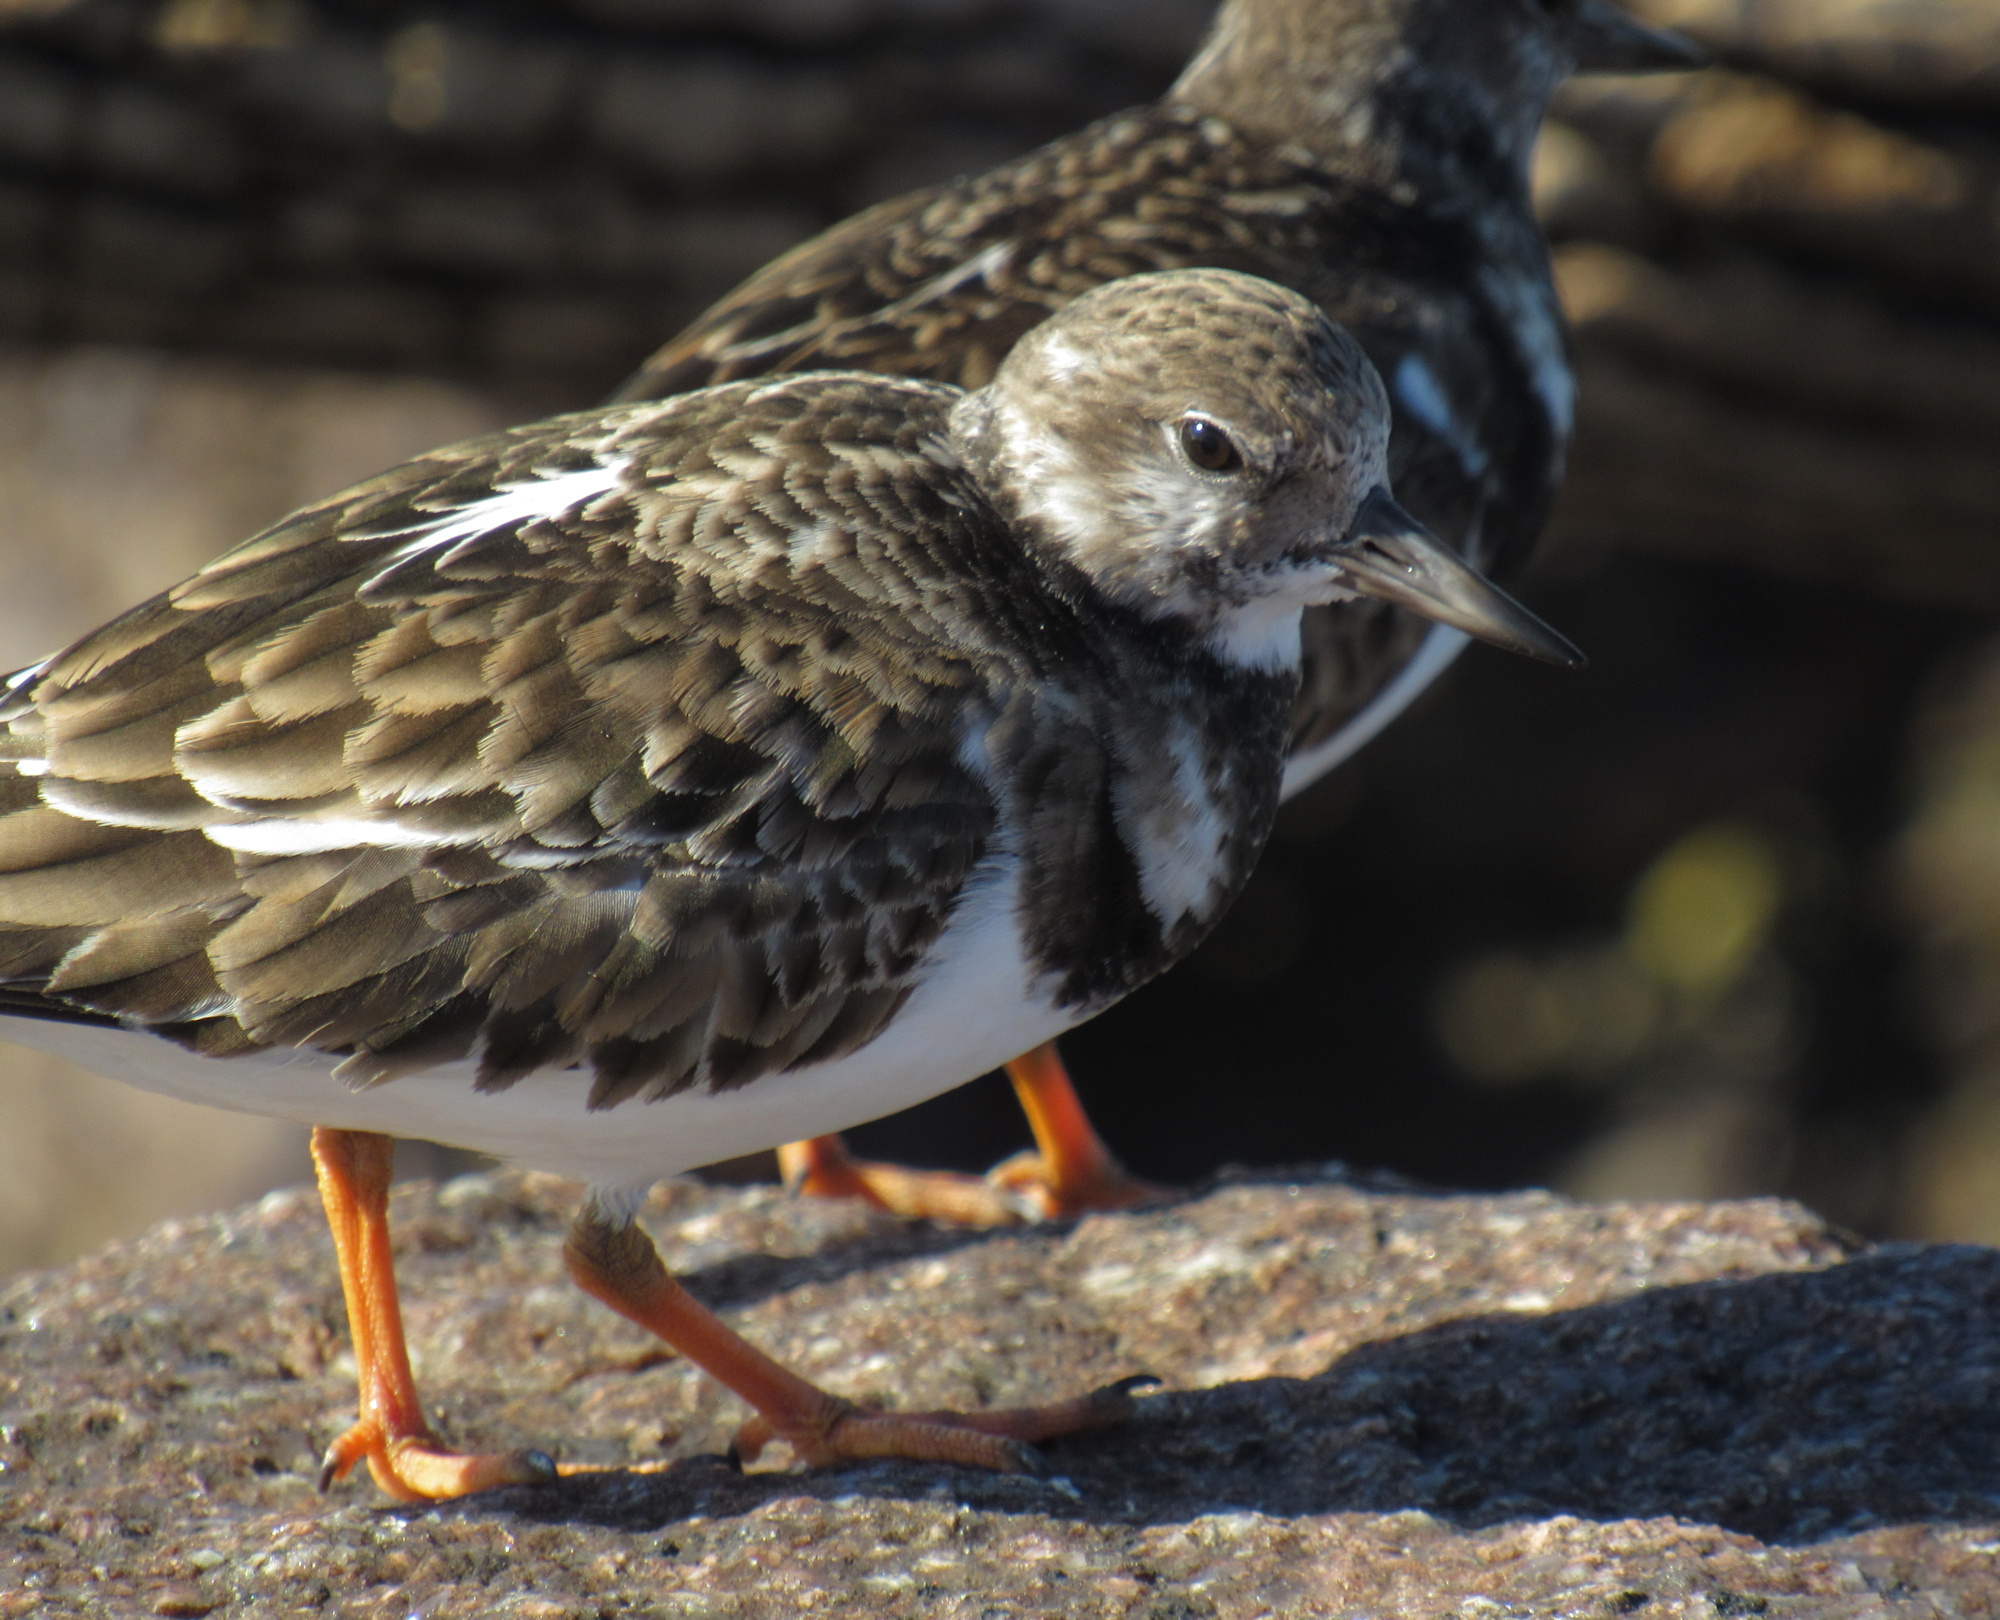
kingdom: Animalia
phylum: Chordata
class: Aves
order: Charadriiformes
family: Scolopacidae
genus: Arenaria
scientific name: Arenaria interpres
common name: Ruddy turnstone
